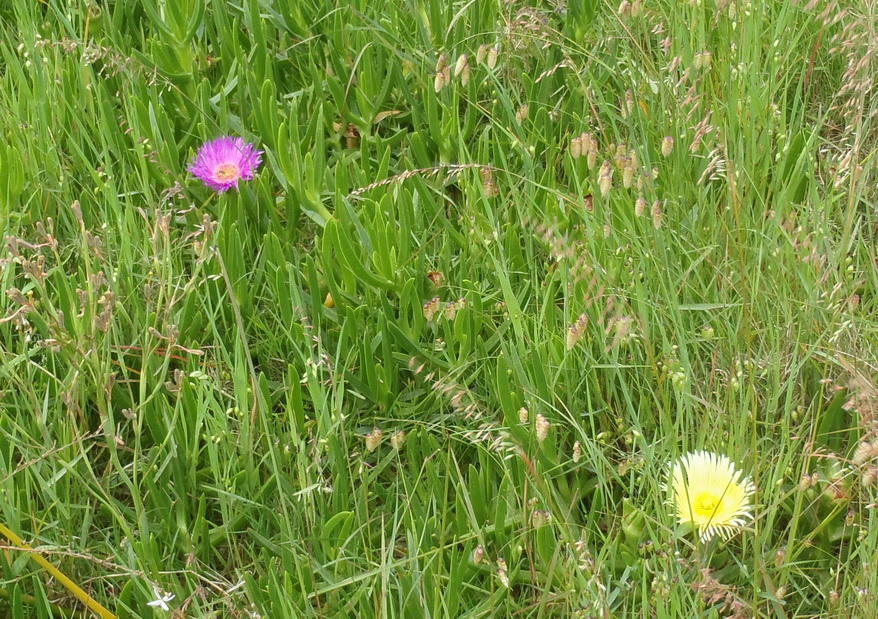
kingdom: Plantae
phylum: Tracheophyta
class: Magnoliopsida
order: Caryophyllales
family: Aizoaceae
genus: Carpobrotus
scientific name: Carpobrotus edulis
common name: Hottentot-fig
